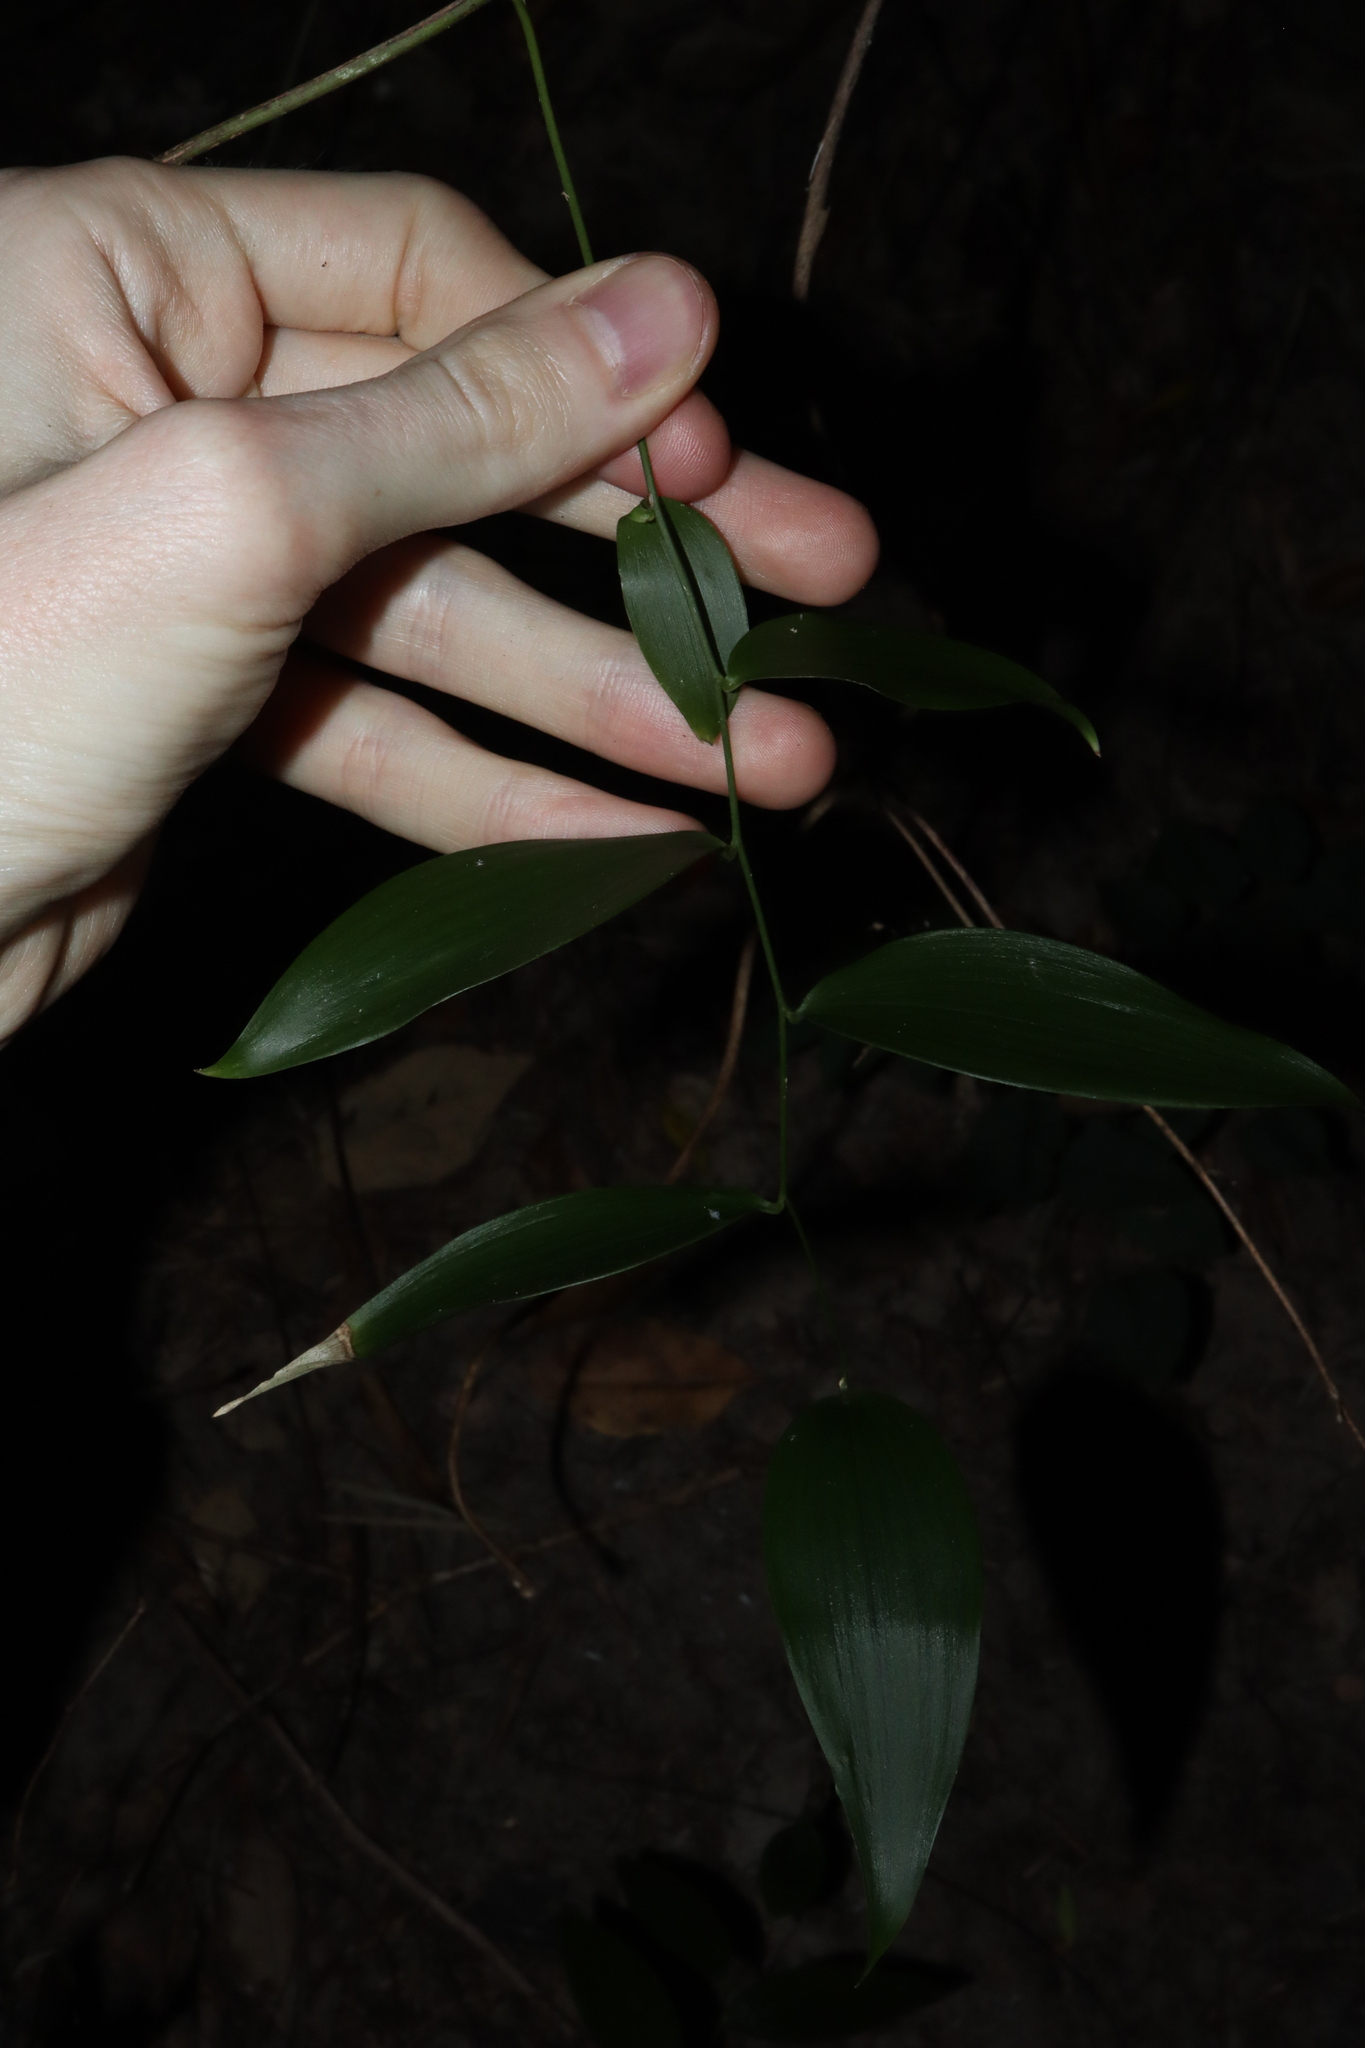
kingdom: Plantae
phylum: Tracheophyta
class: Liliopsida
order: Asparagales
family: Asparagaceae
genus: Eustrephus
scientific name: Eustrephus latifolius
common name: Orangevine
